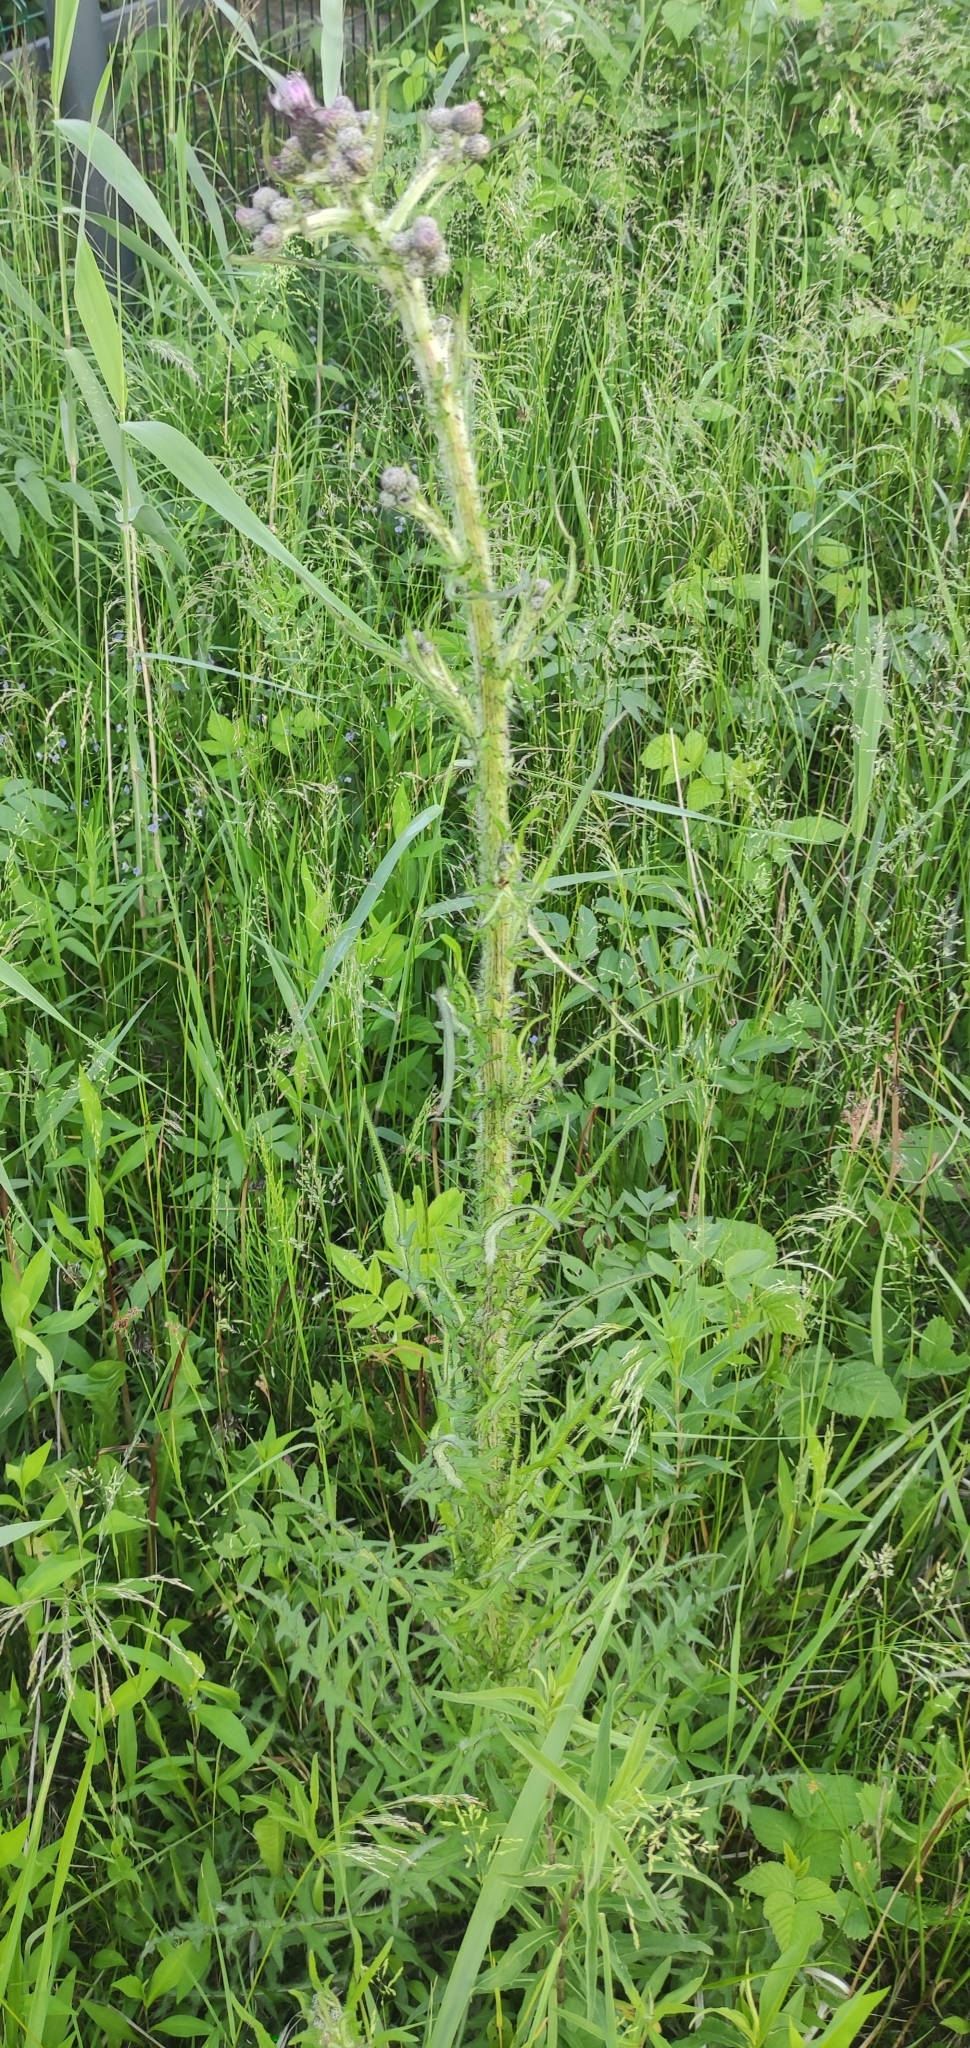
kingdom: Plantae
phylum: Tracheophyta
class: Magnoliopsida
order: Asterales
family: Asteraceae
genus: Cirsium
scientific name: Cirsium palustre
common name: Marsh thistle
